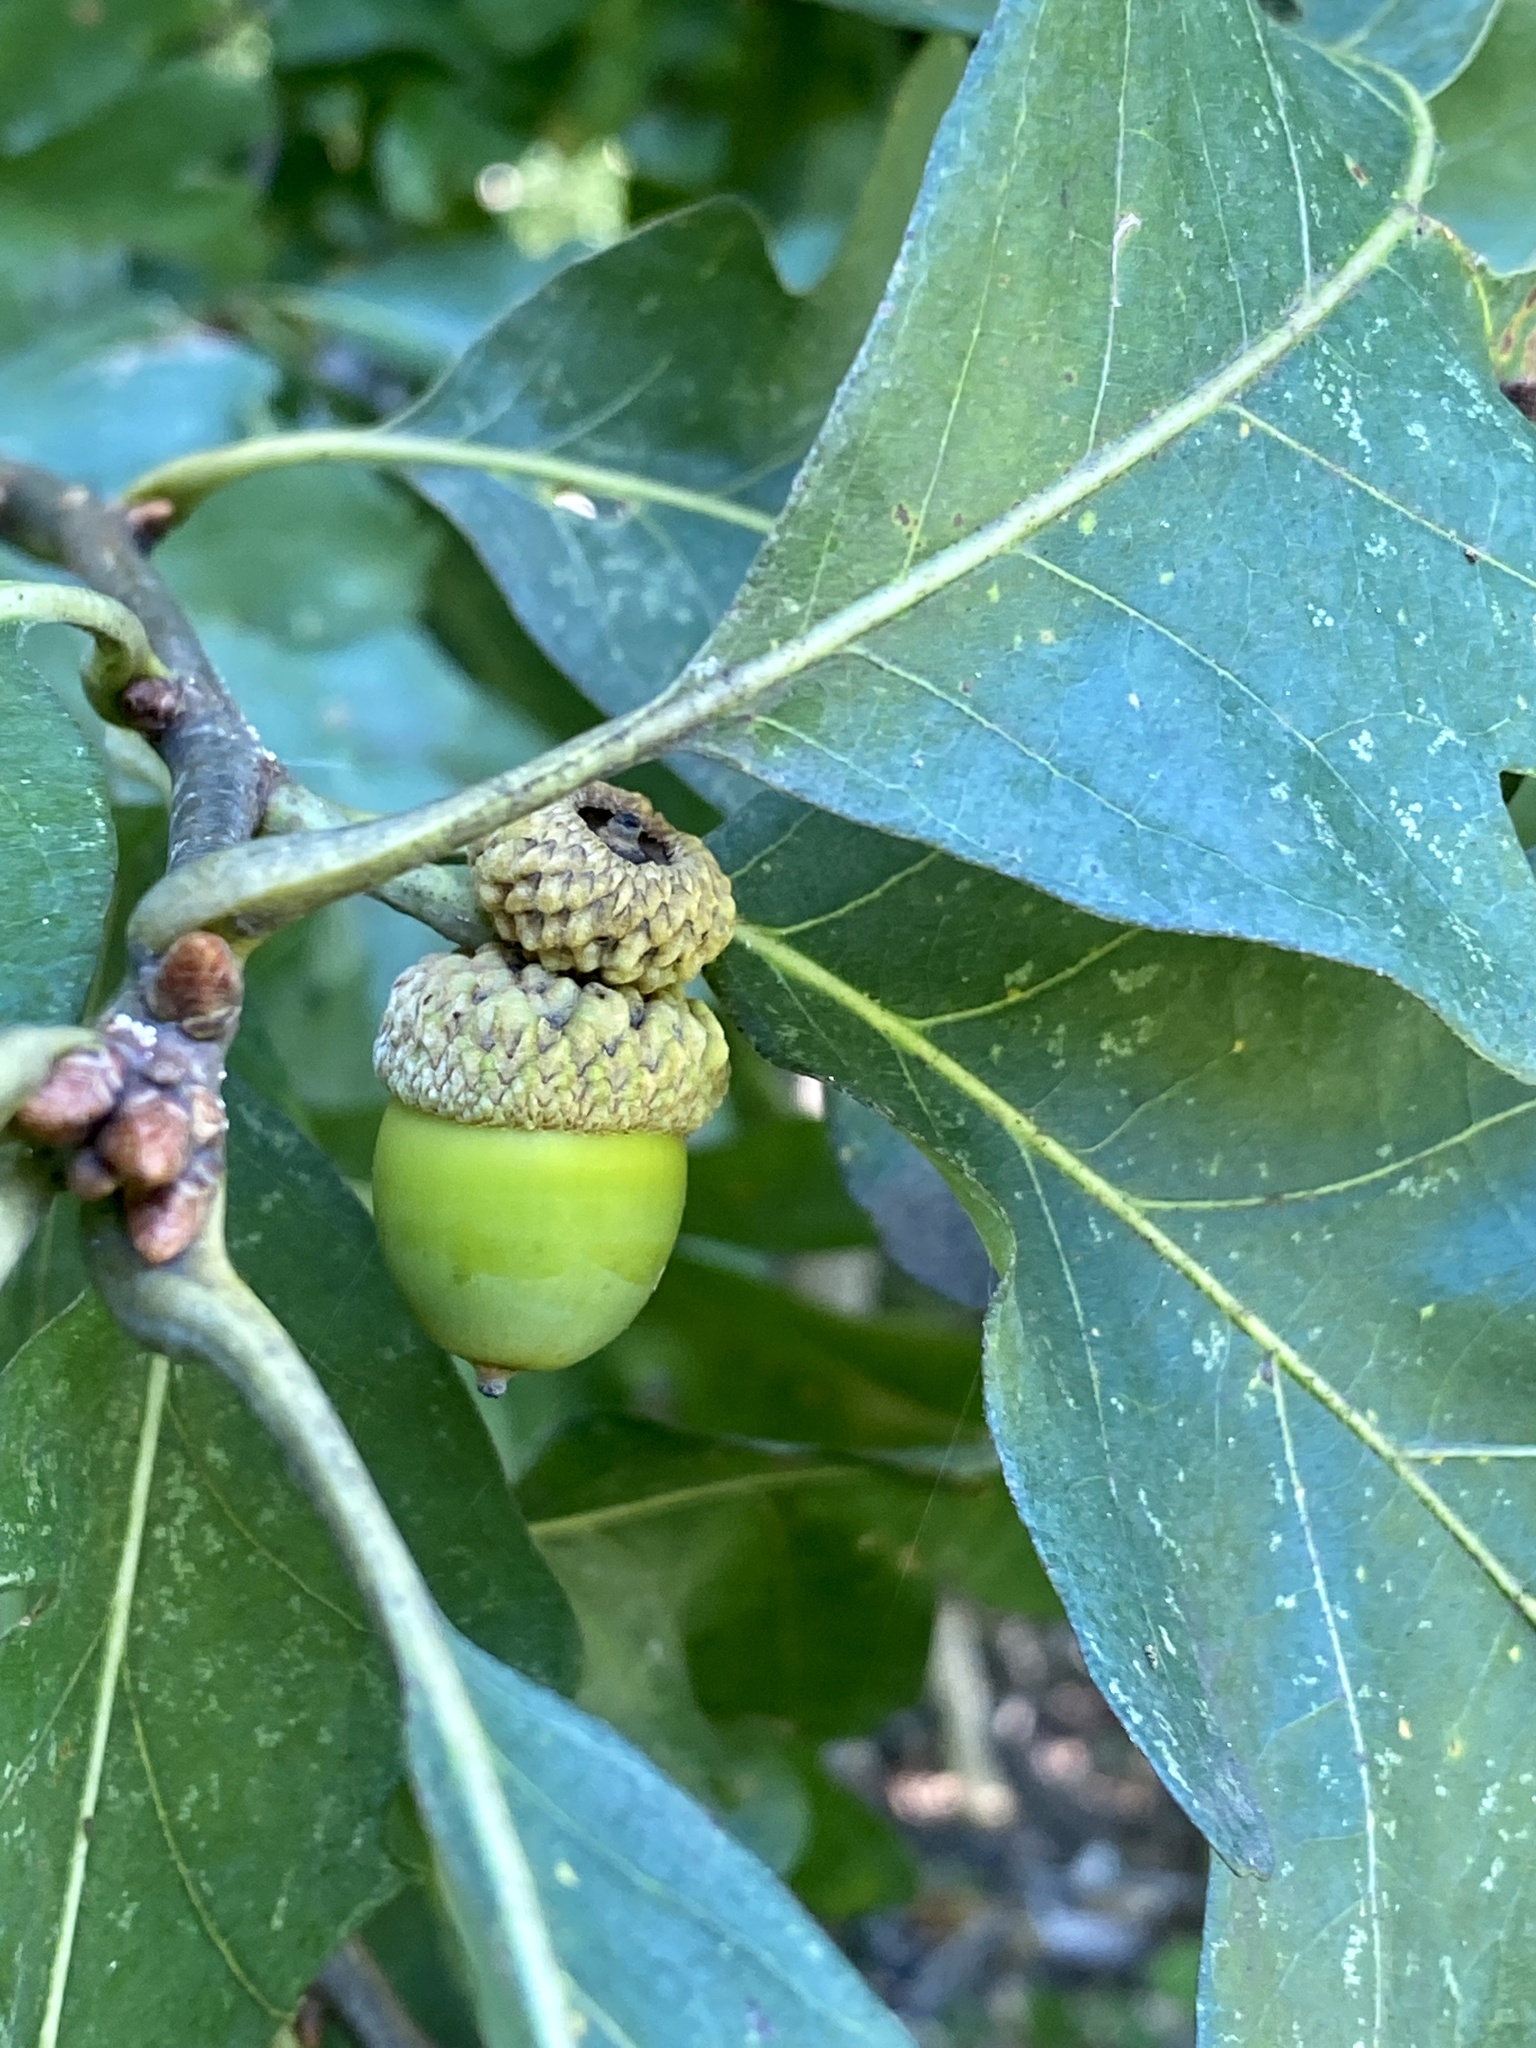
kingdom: Plantae
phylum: Tracheophyta
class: Magnoliopsida
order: Fagales
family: Fagaceae
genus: Quercus
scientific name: Quercus alba
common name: White oak
